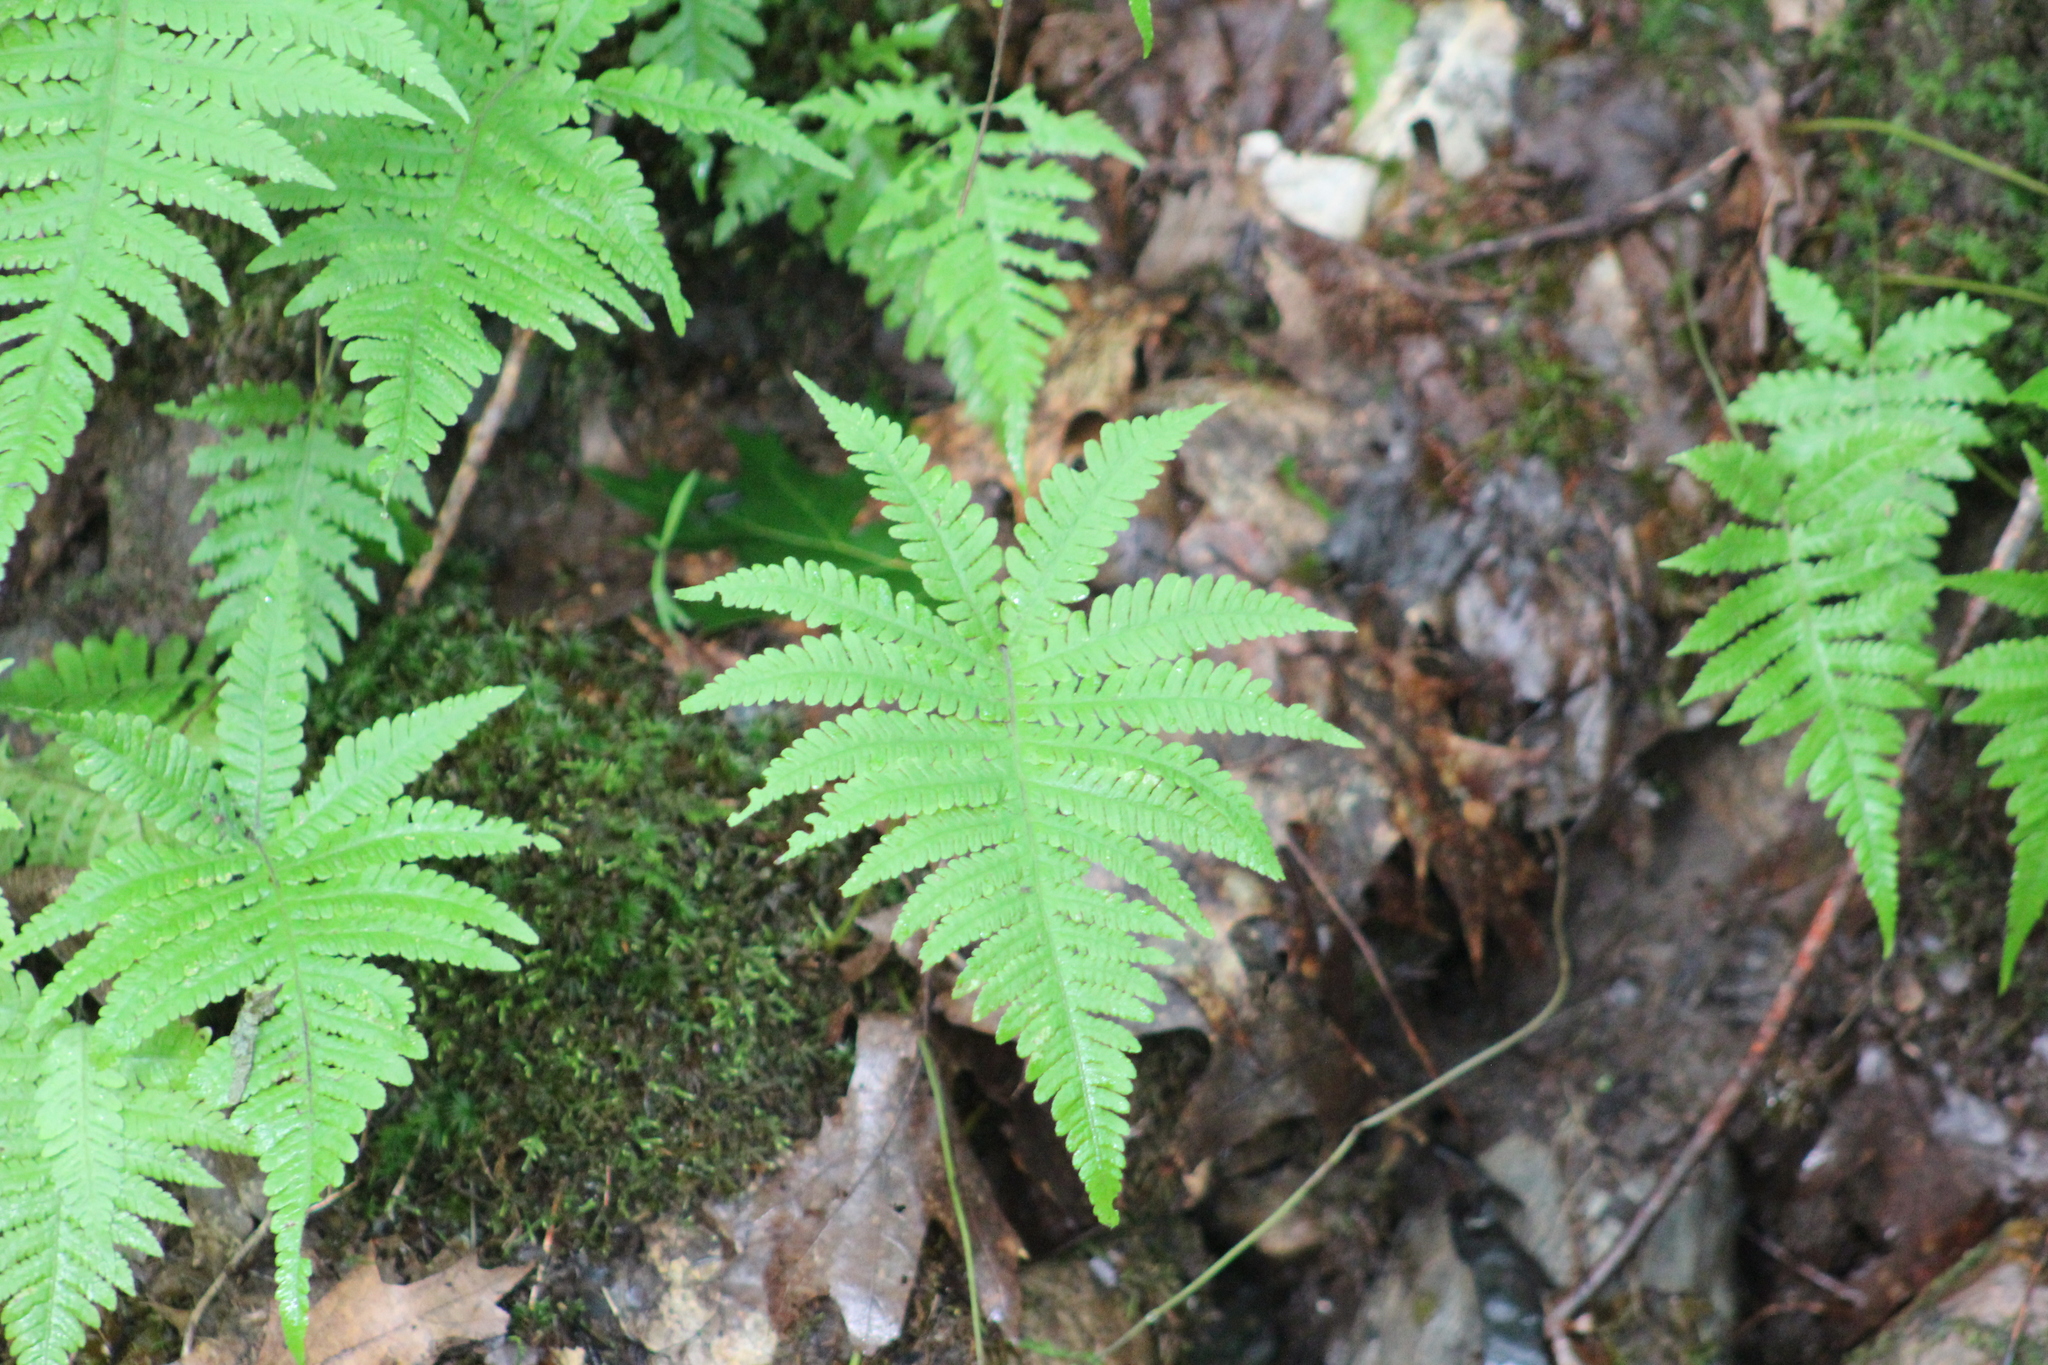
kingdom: Plantae
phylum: Tracheophyta
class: Polypodiopsida
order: Polypodiales
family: Thelypteridaceae
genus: Phegopteris
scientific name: Phegopteris connectilis
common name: Beech fern
